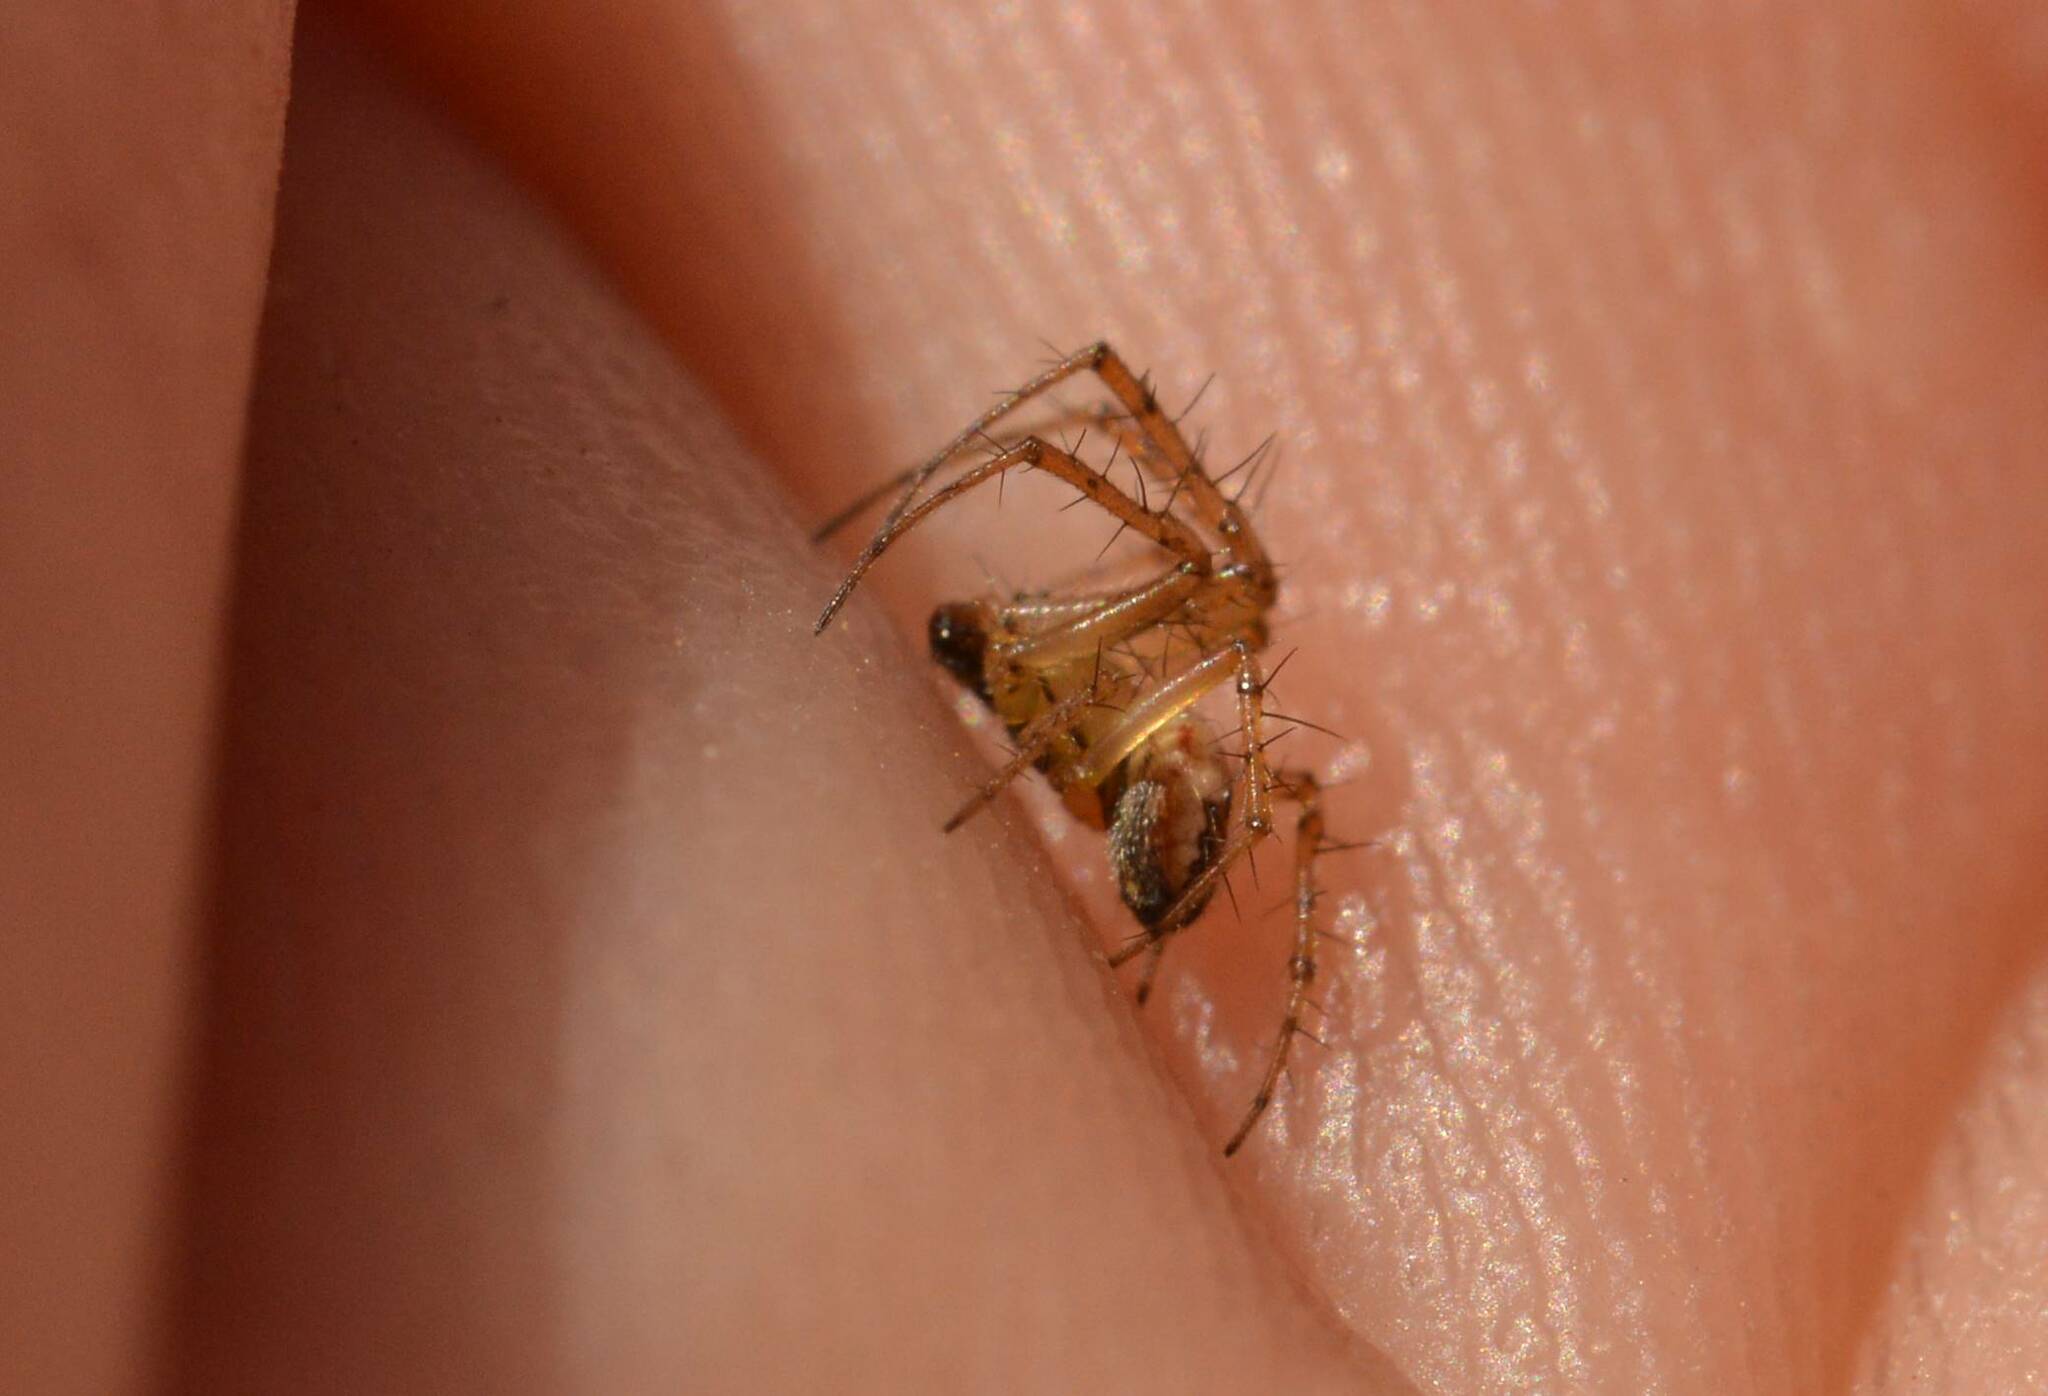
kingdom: Animalia
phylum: Arthropoda
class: Arachnida
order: Araneae
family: Araneidae
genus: Mangora
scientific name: Mangora acalypha
